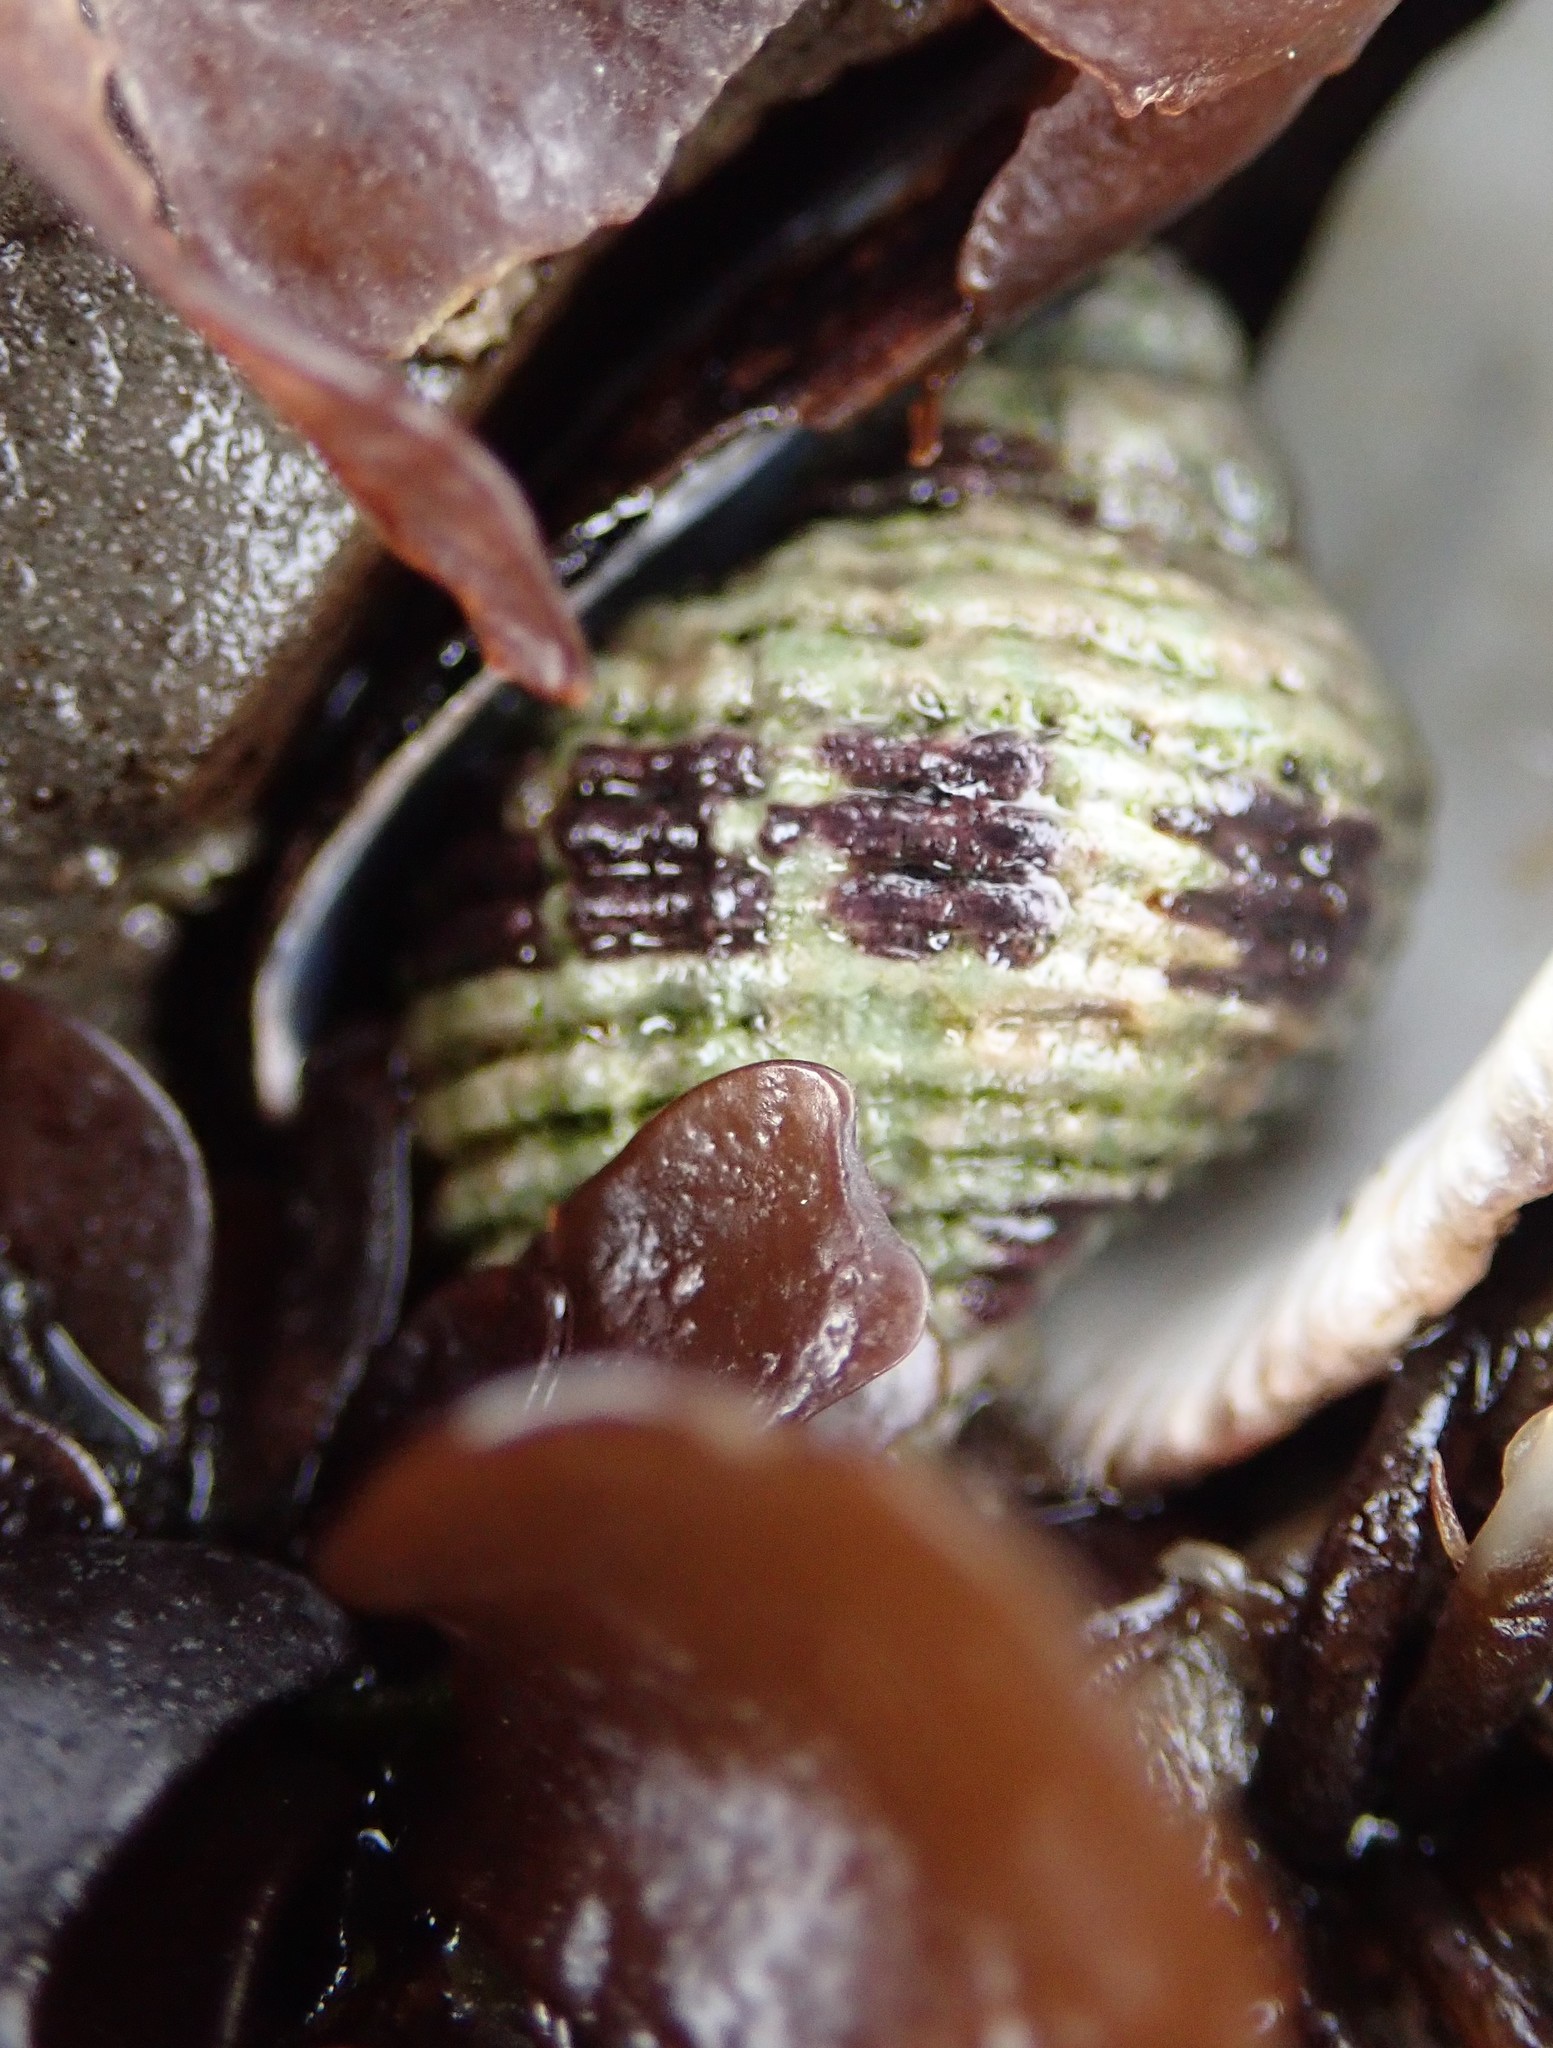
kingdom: Animalia
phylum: Mollusca
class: Gastropoda
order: Neogastropoda
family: Muricidae
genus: Paciocinebrina
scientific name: Paciocinebrina circumtexta
